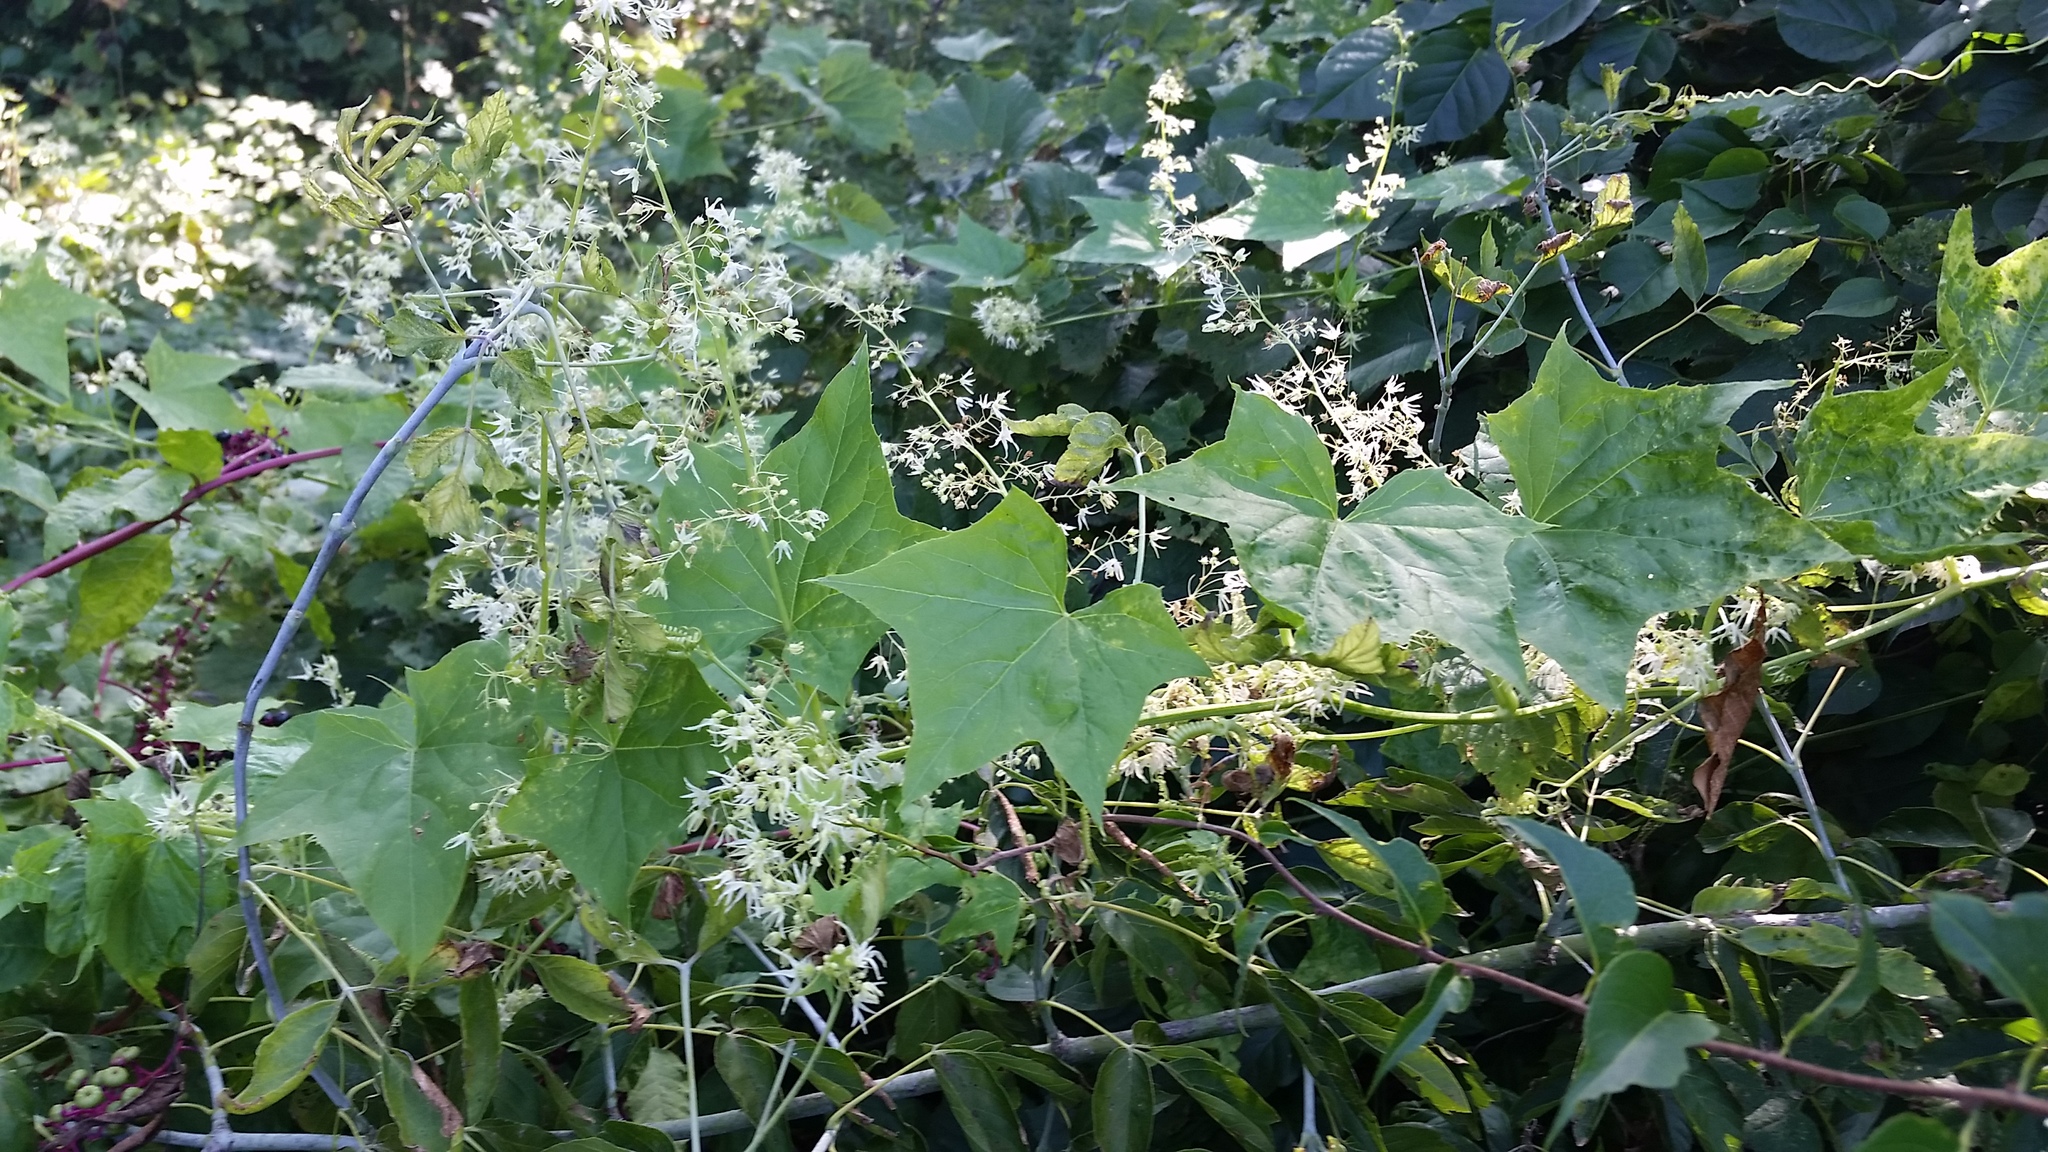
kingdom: Plantae
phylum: Tracheophyta
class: Magnoliopsida
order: Cucurbitales
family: Cucurbitaceae
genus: Echinocystis
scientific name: Echinocystis lobata
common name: Wild cucumber
